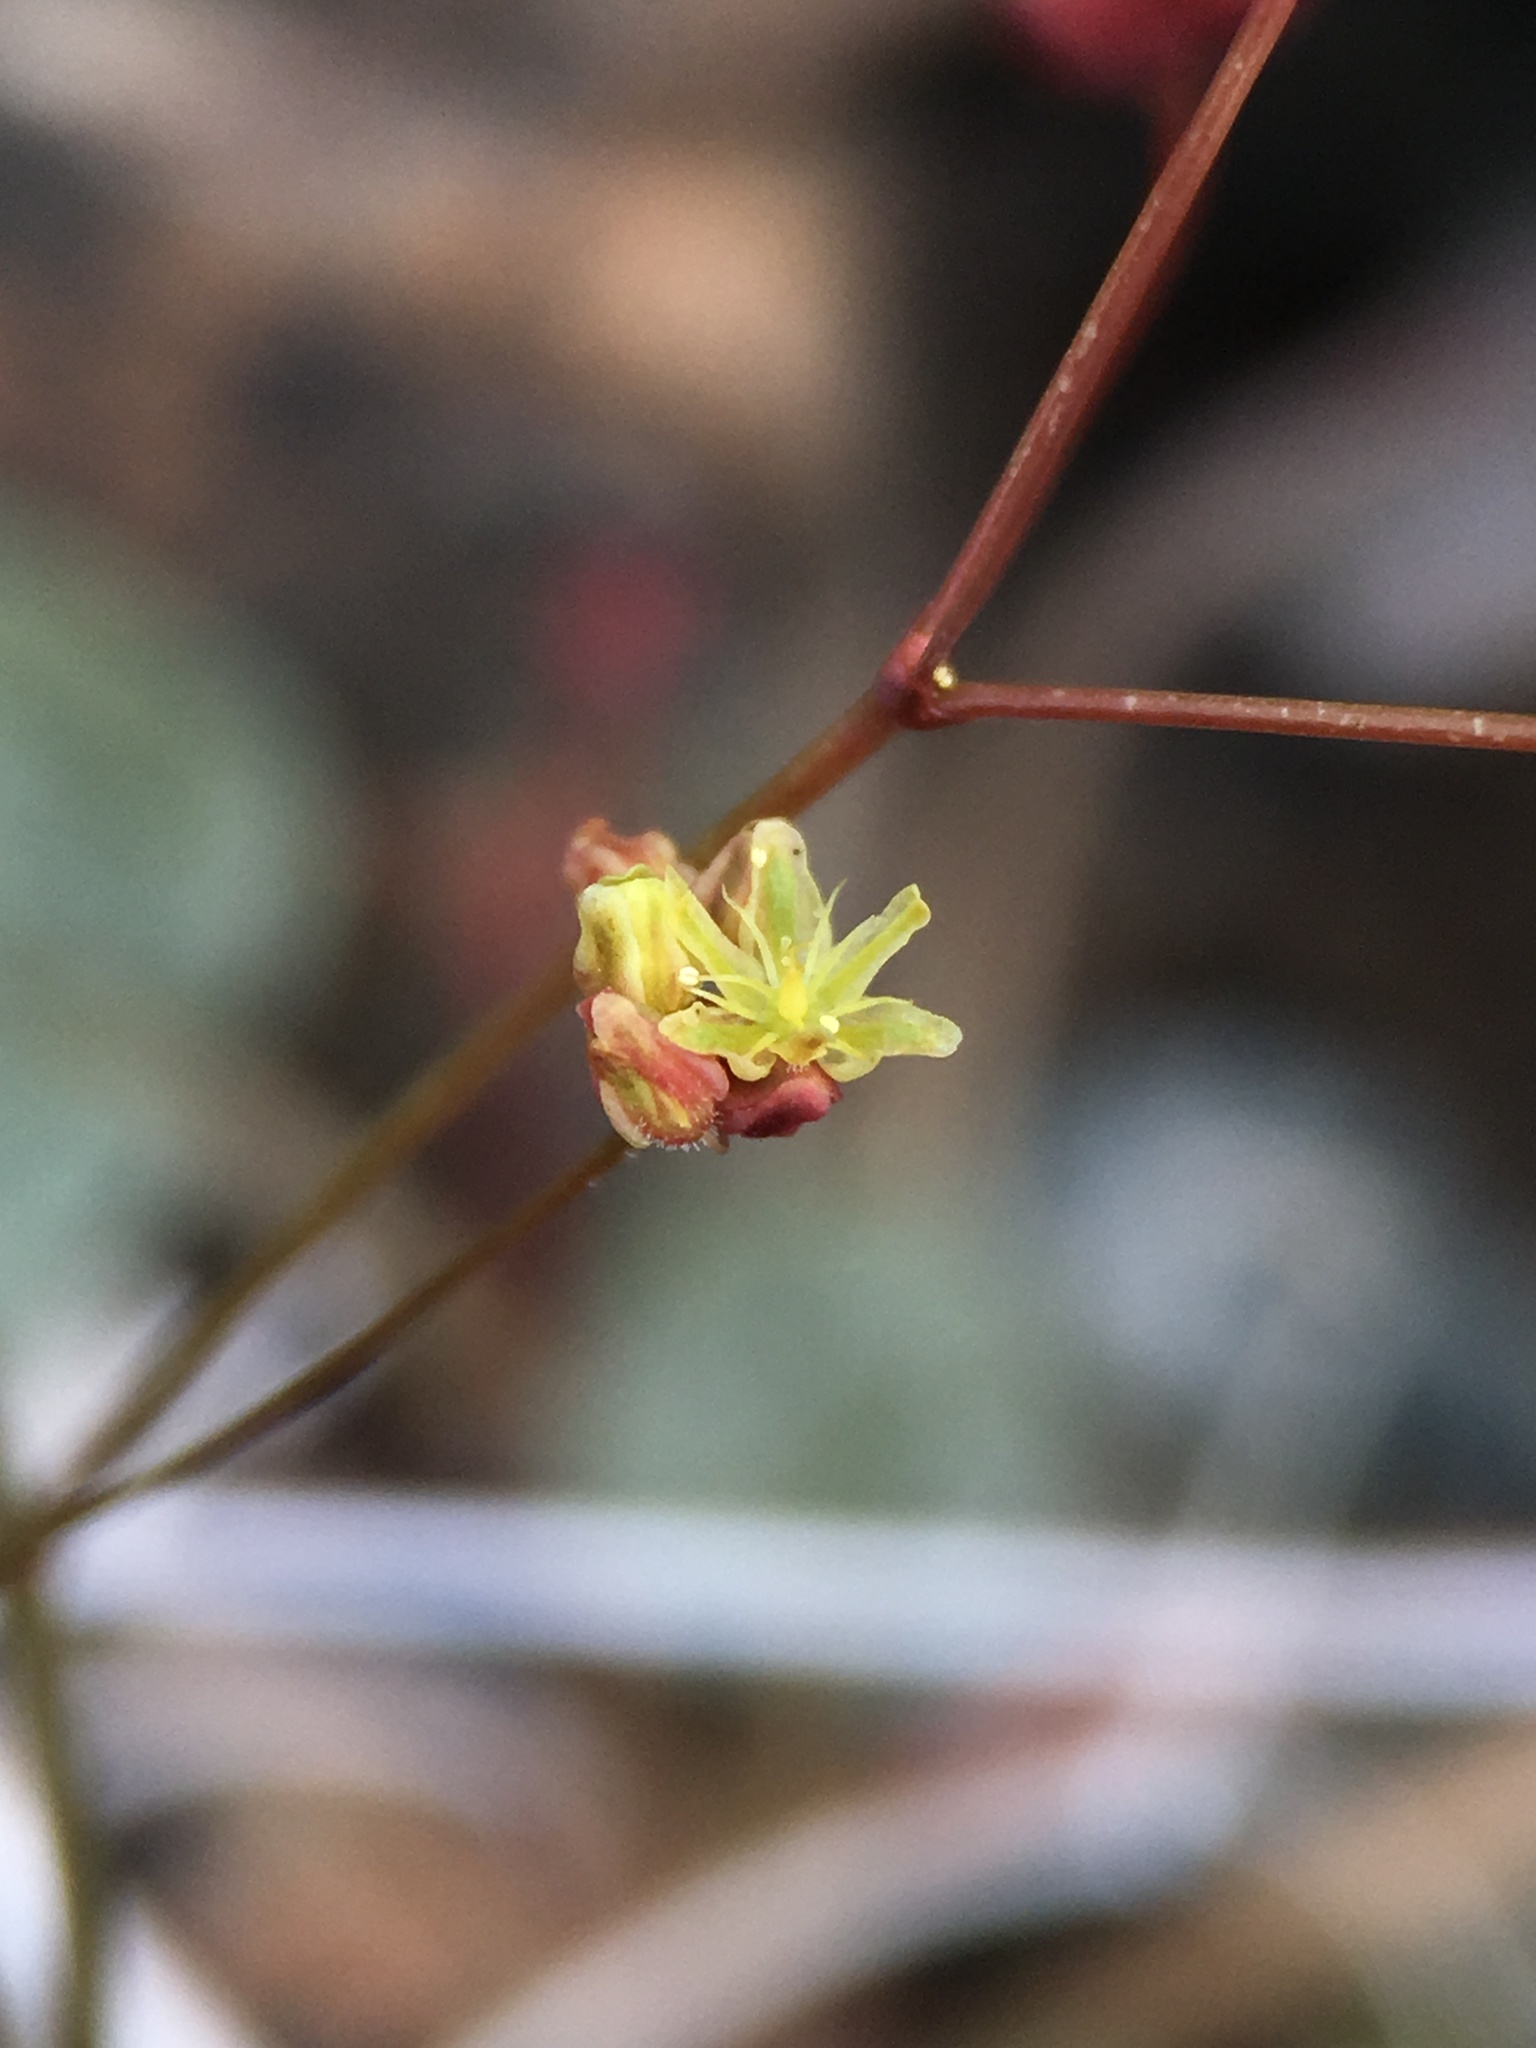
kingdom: Plantae
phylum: Tracheophyta
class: Magnoliopsida
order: Caryophyllales
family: Polygonaceae
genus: Eriogonum
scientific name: Eriogonum thomasii
